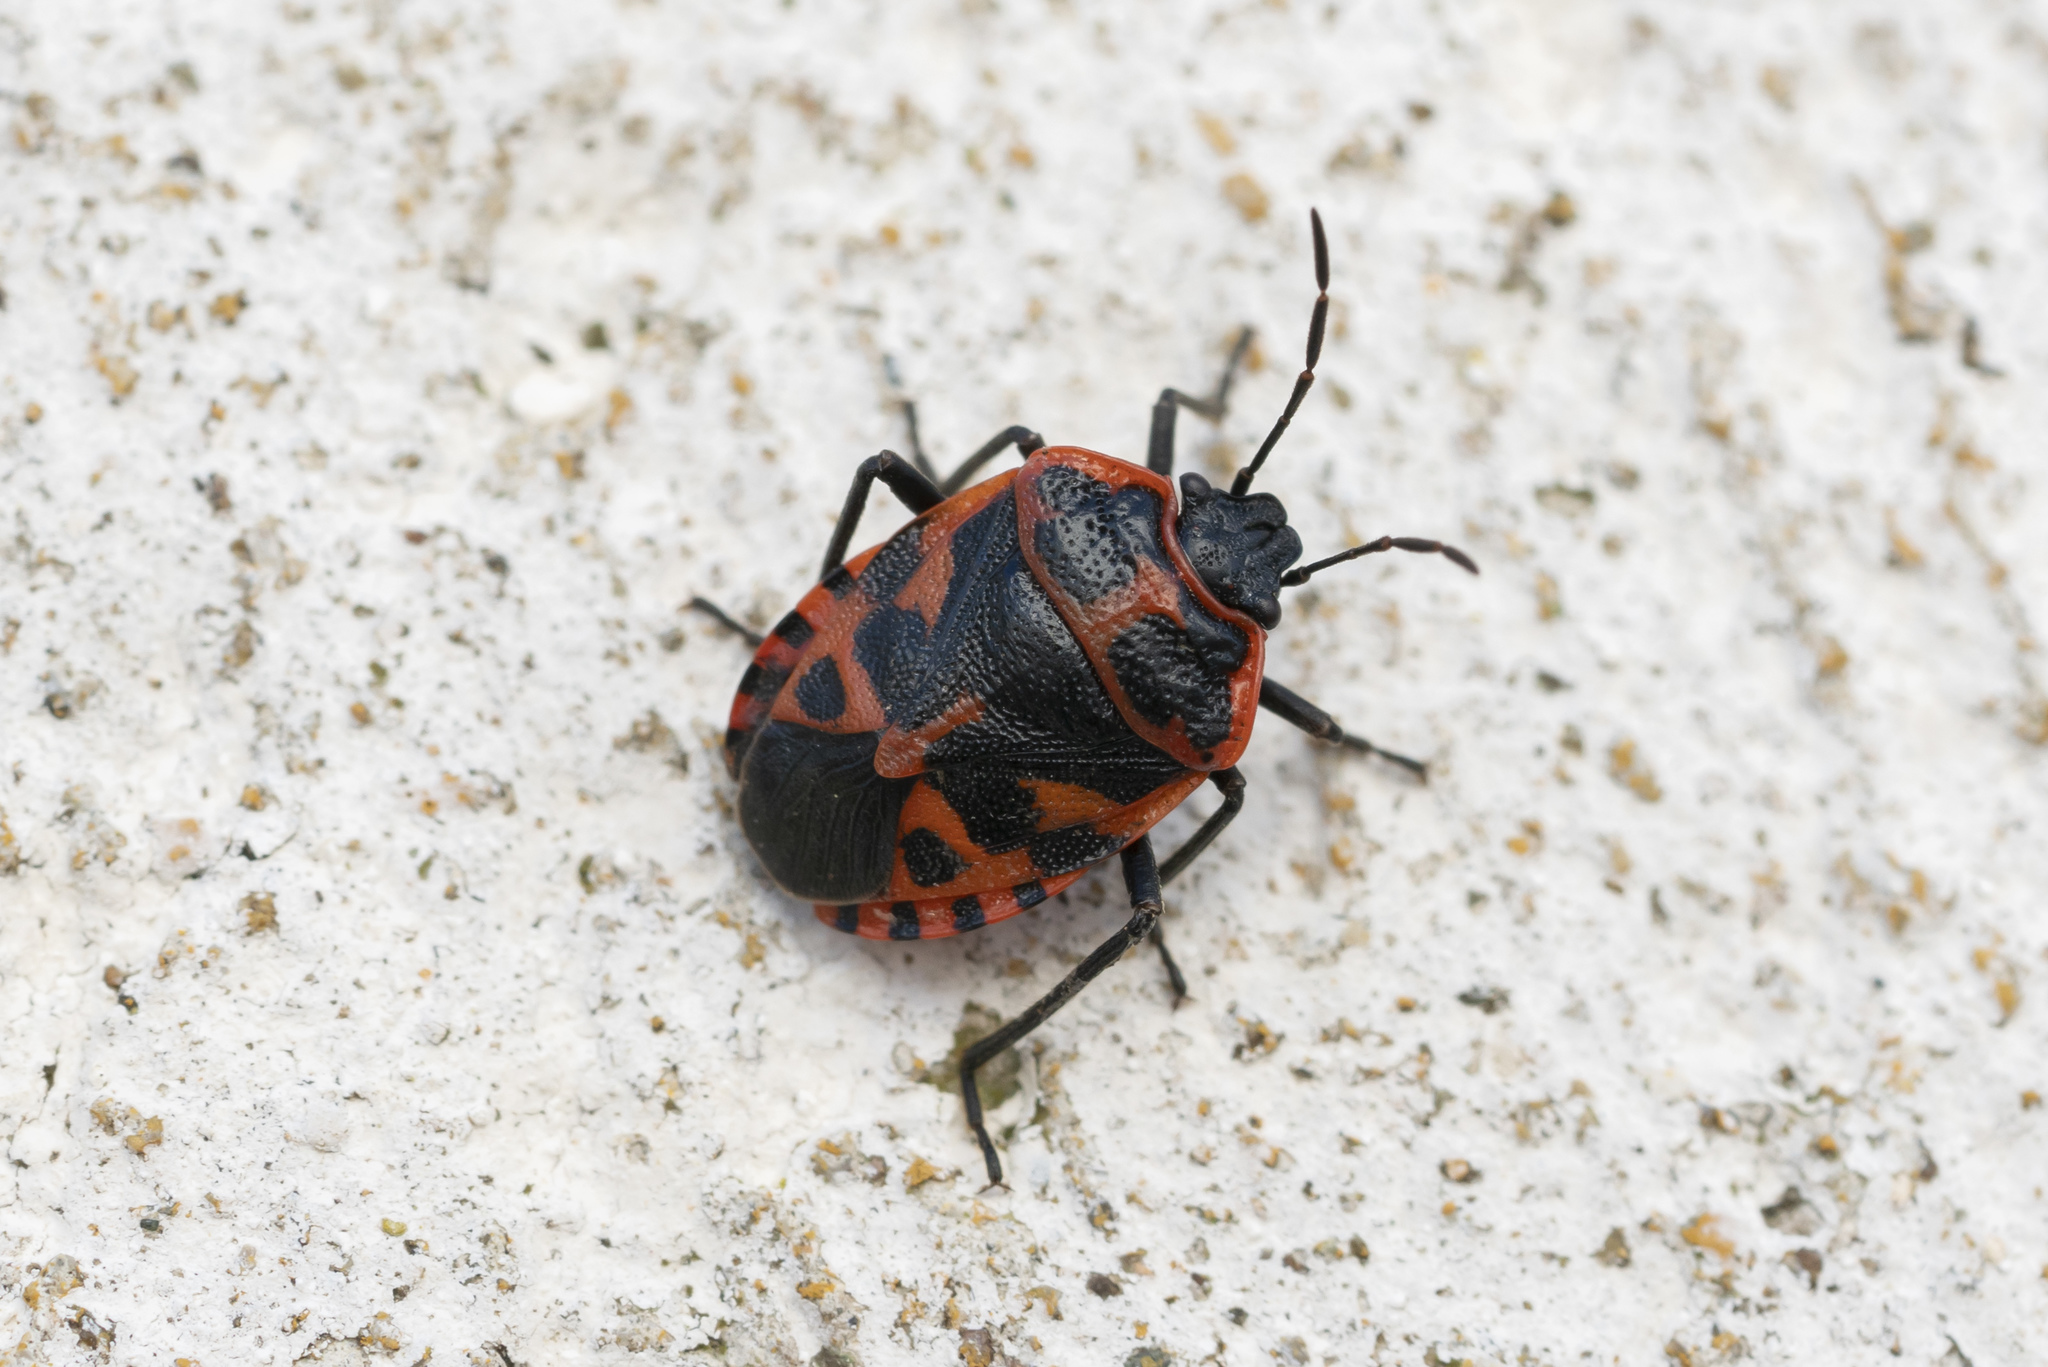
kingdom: Animalia
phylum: Arthropoda
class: Insecta
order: Hemiptera
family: Pentatomidae
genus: Eurydema
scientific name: Eurydema eckerleini
